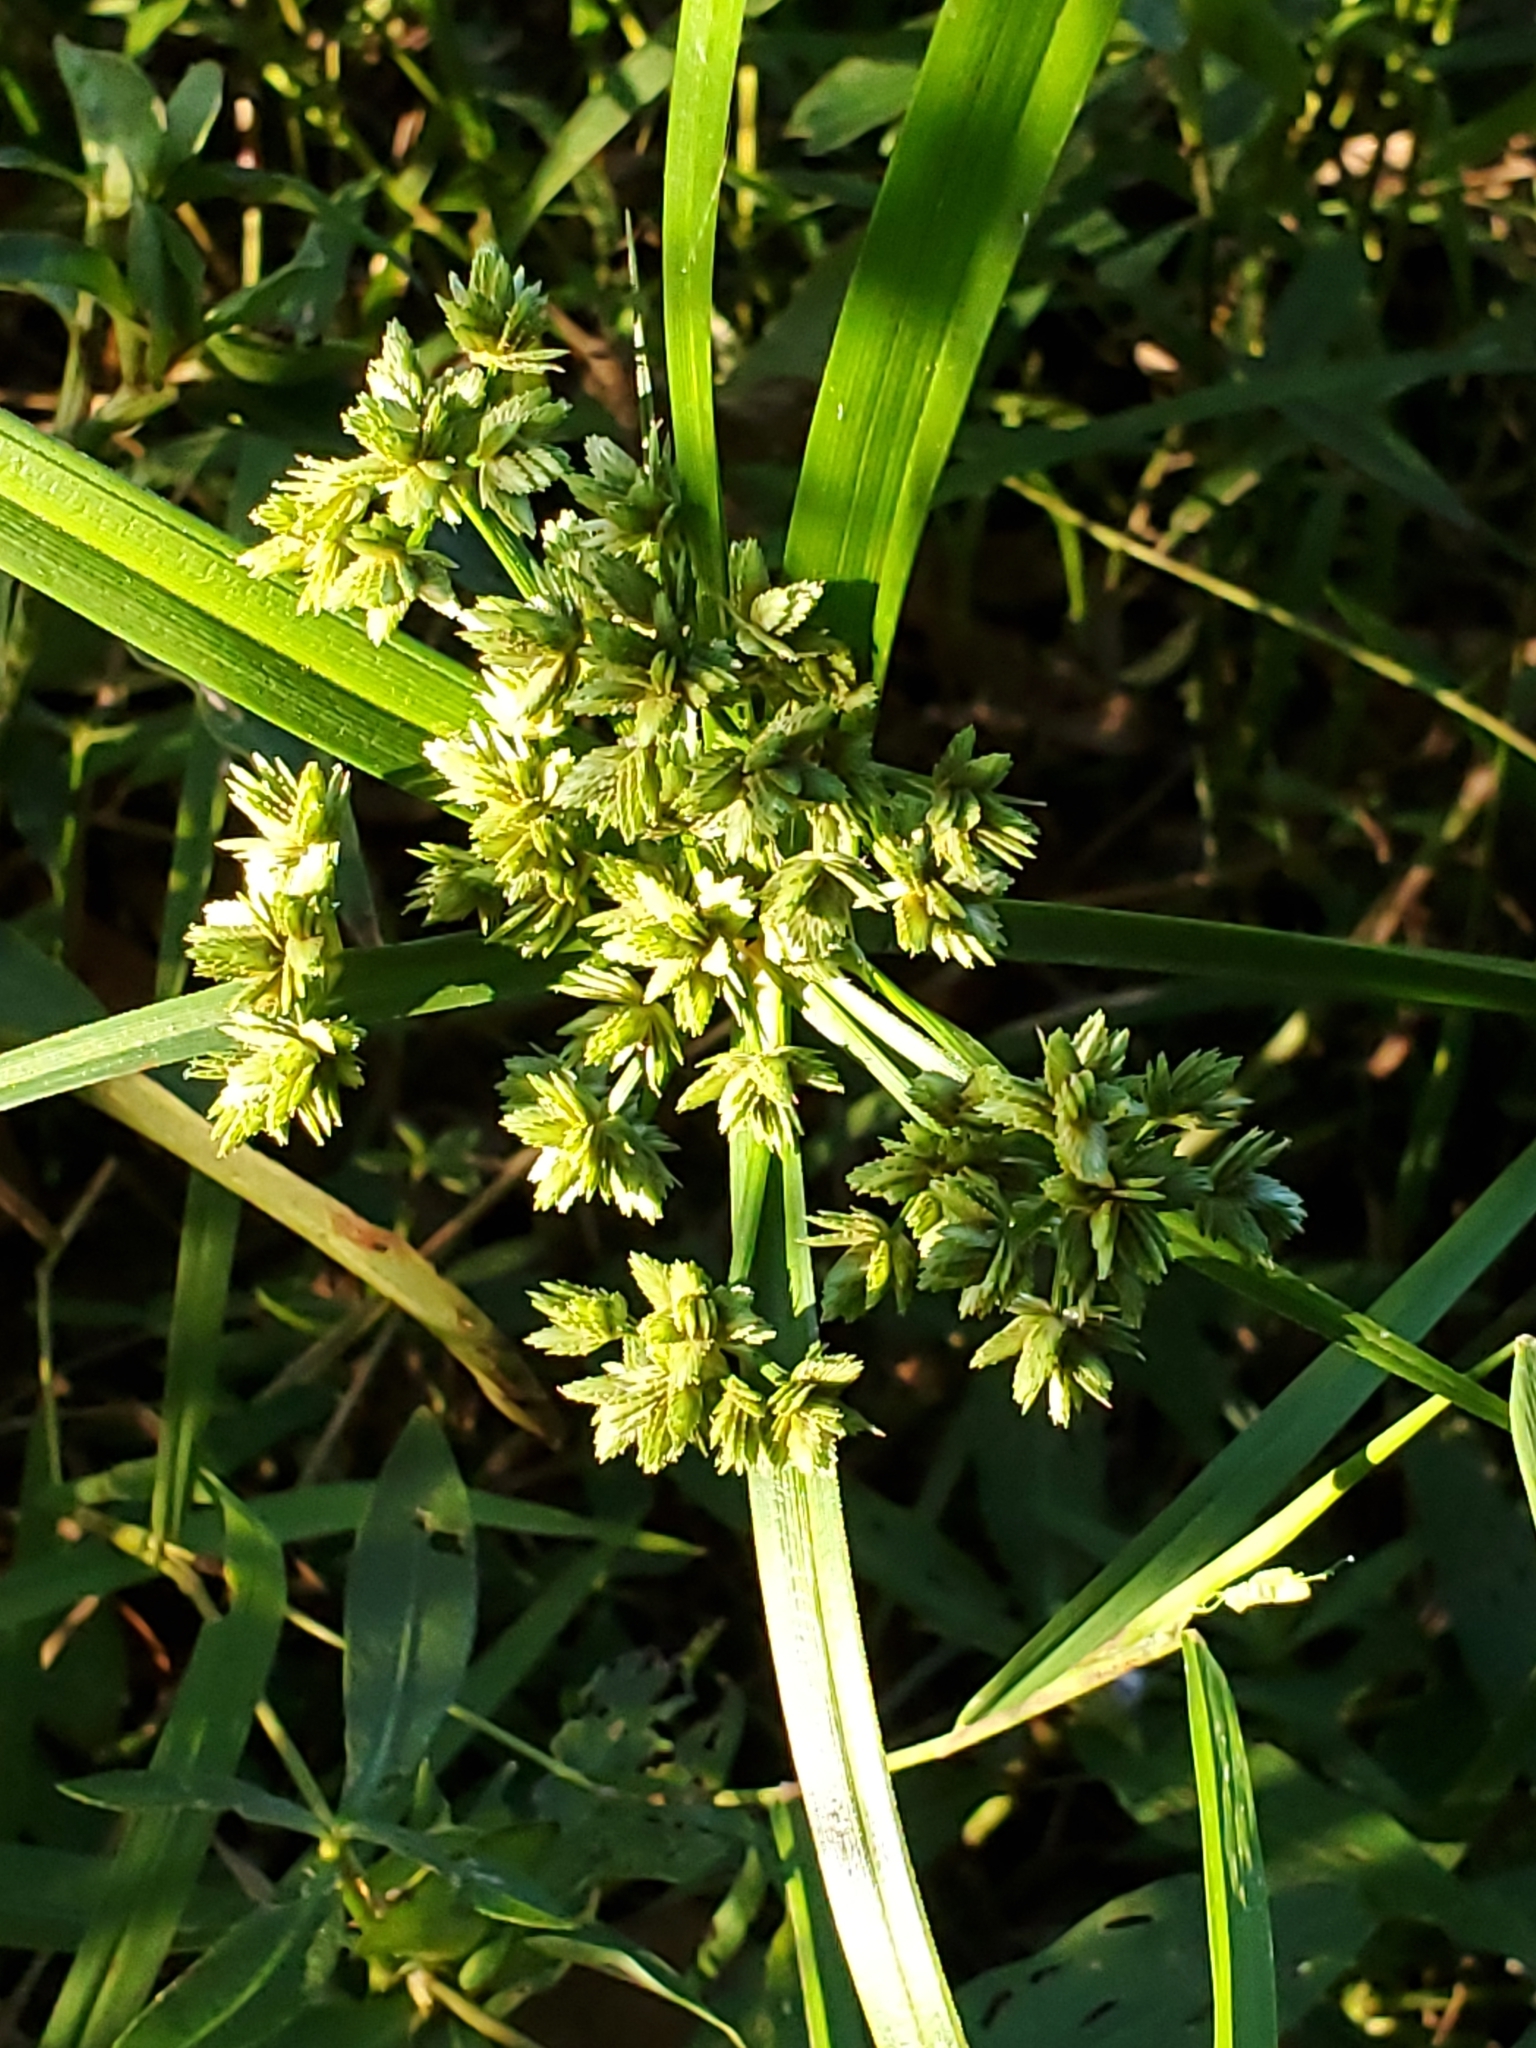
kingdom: Plantae
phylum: Tracheophyta
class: Liliopsida
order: Poales
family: Cyperaceae
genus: Cyperus
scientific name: Cyperus virens
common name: Green flatsedge
